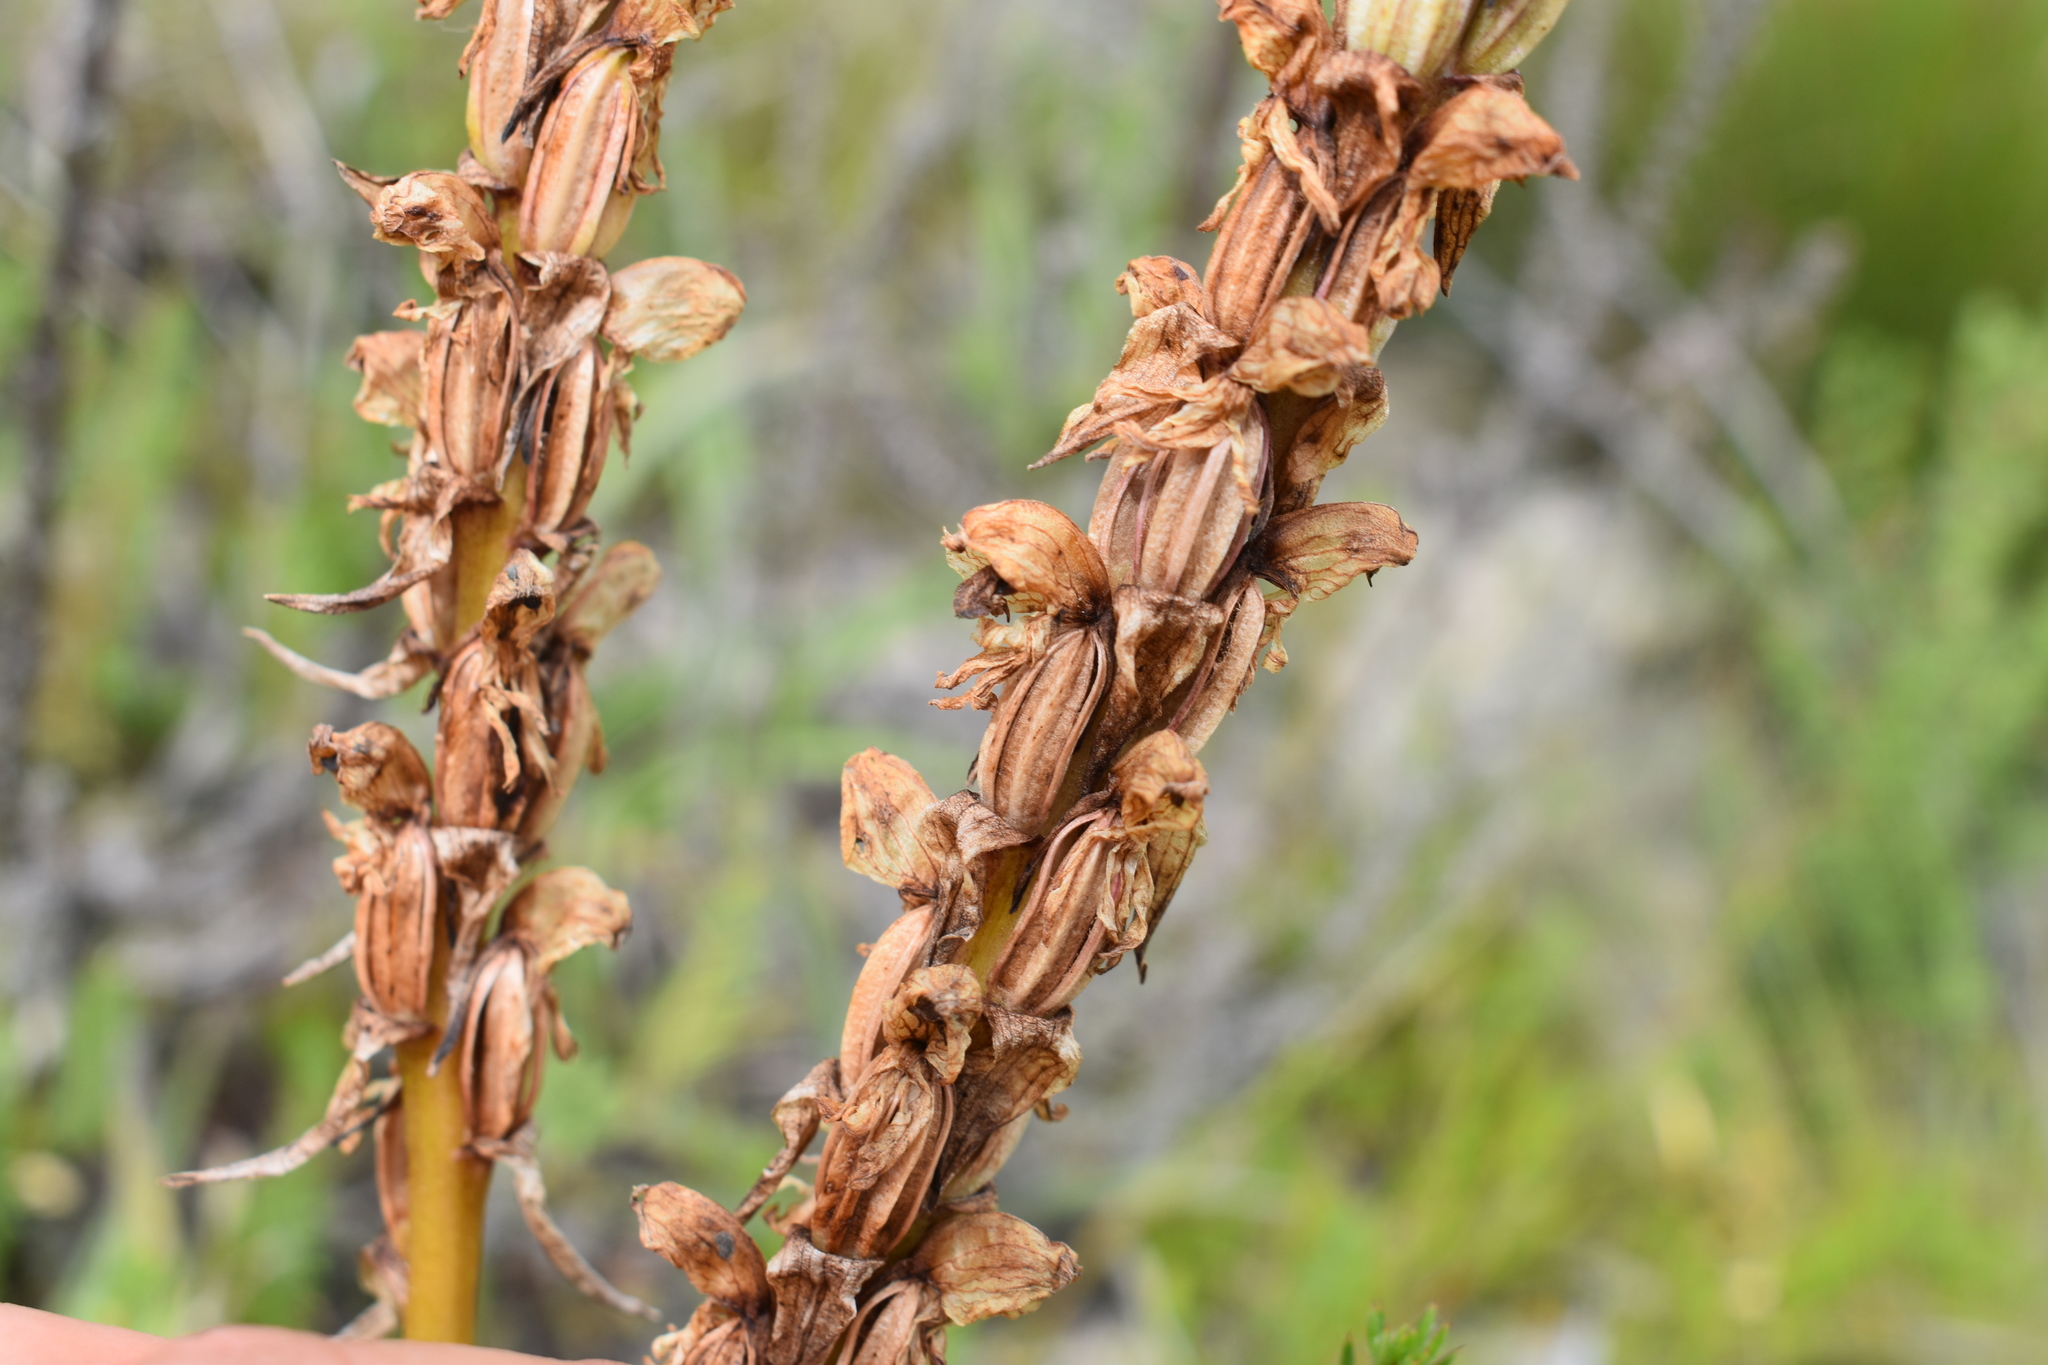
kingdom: Plantae
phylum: Tracheophyta
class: Liliopsida
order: Asparagales
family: Orchidaceae
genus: Satyrium
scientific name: Satyrium coriifolium
